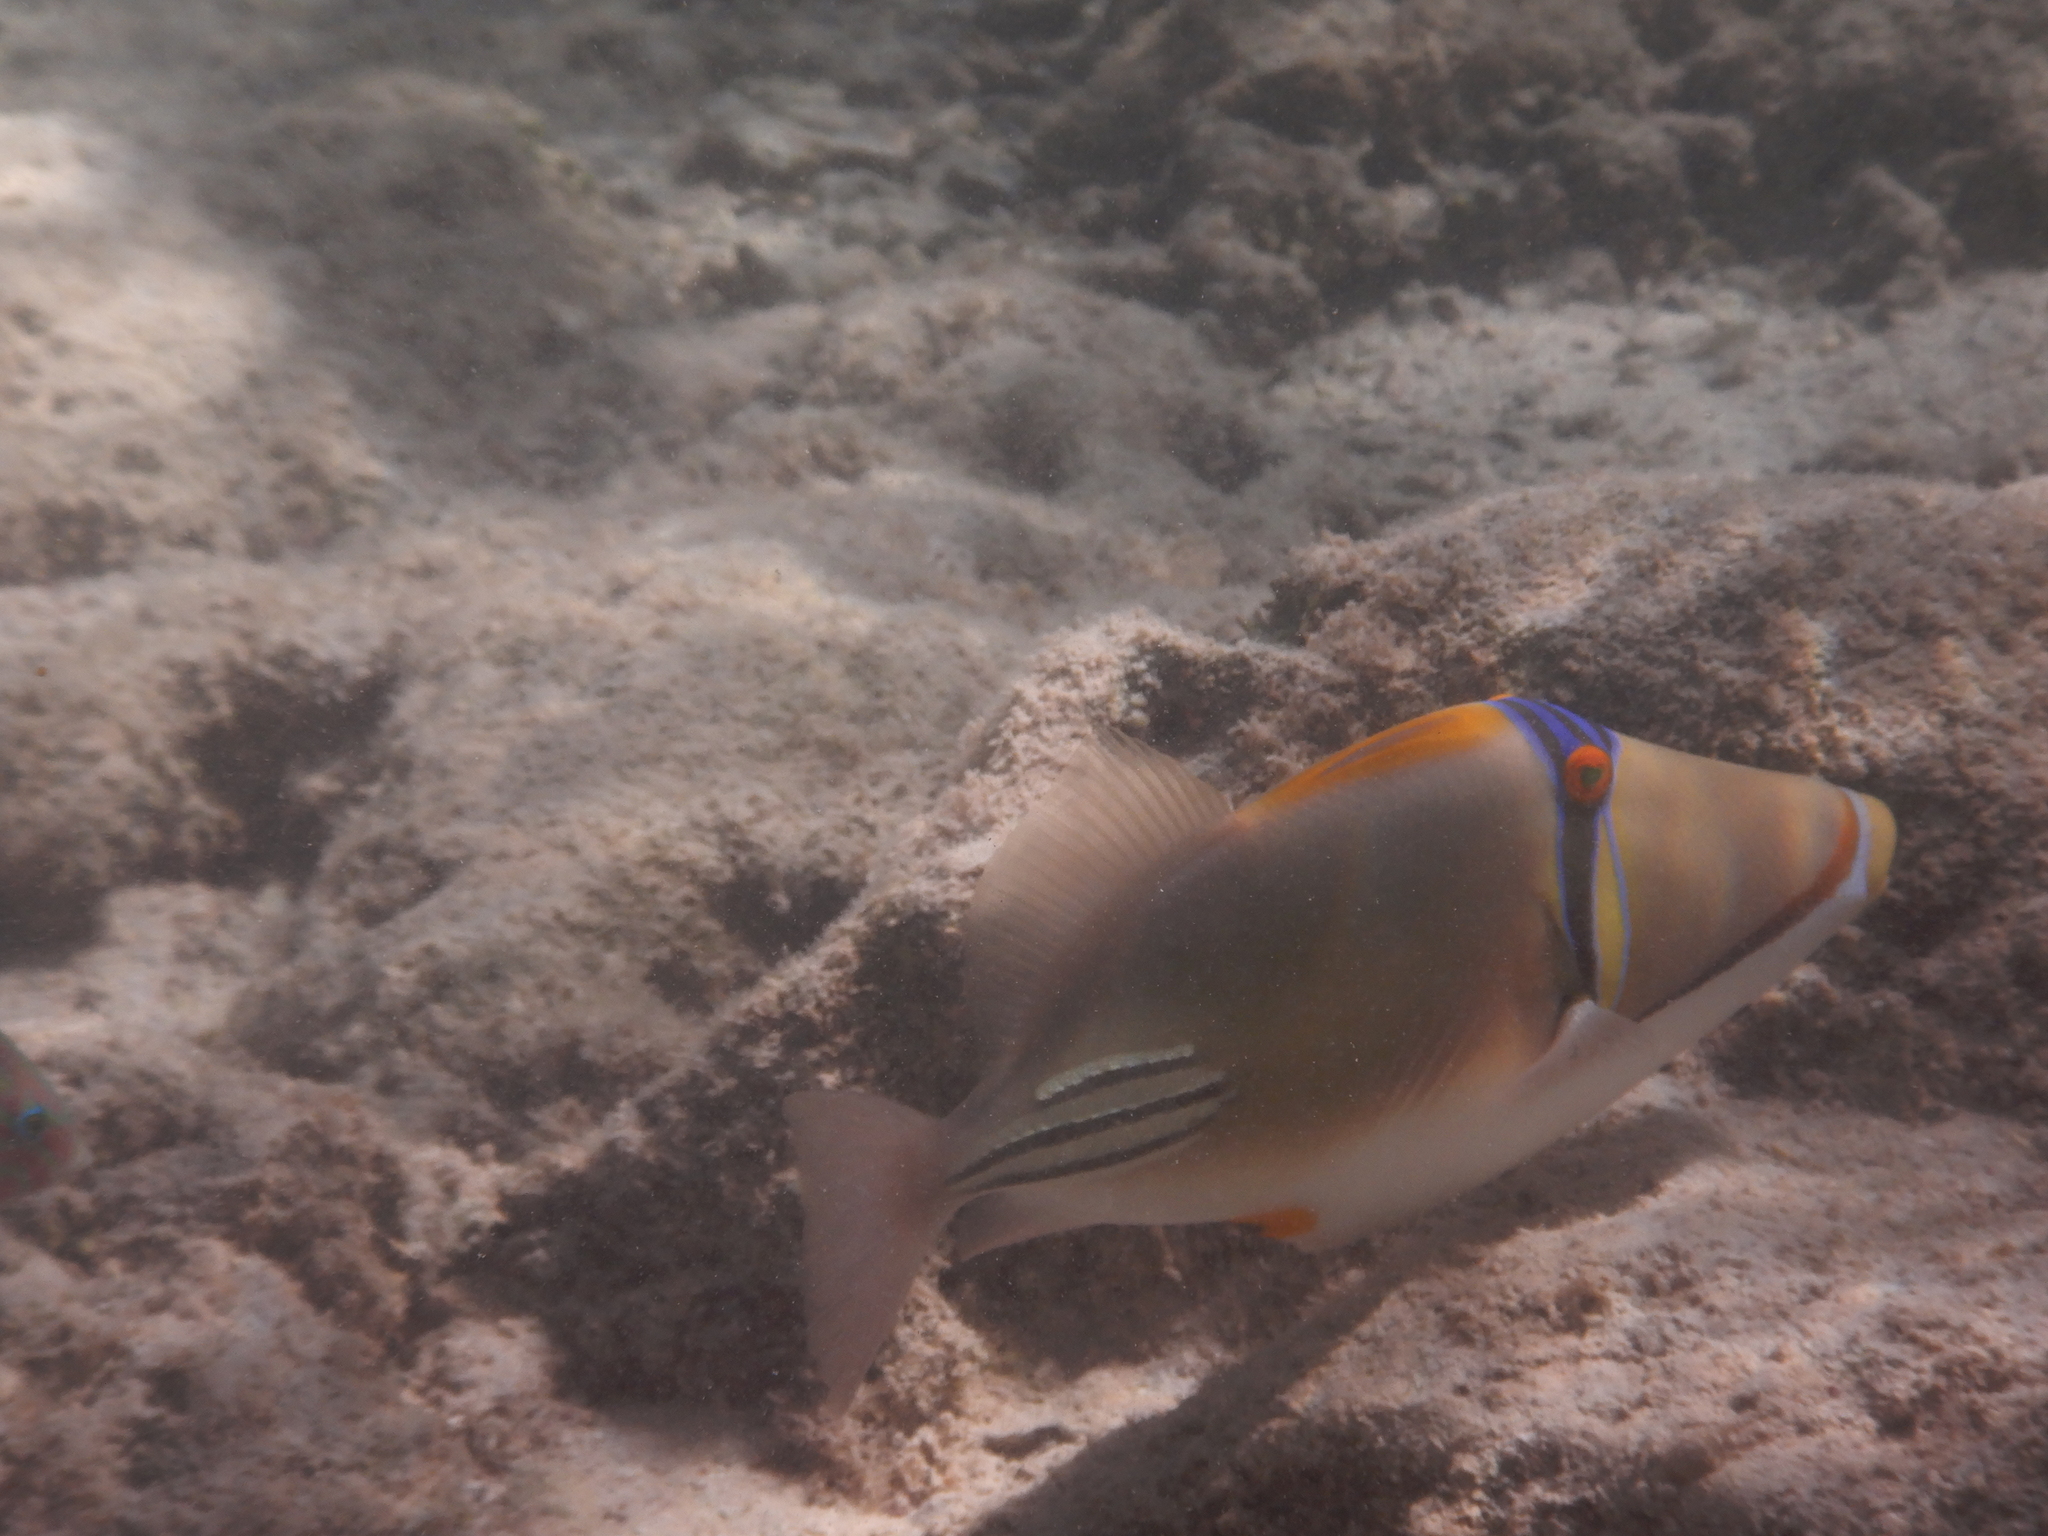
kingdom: Animalia
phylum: Chordata
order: Tetraodontiformes
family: Balistidae
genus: Rhinecanthus
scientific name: Rhinecanthus assasi
